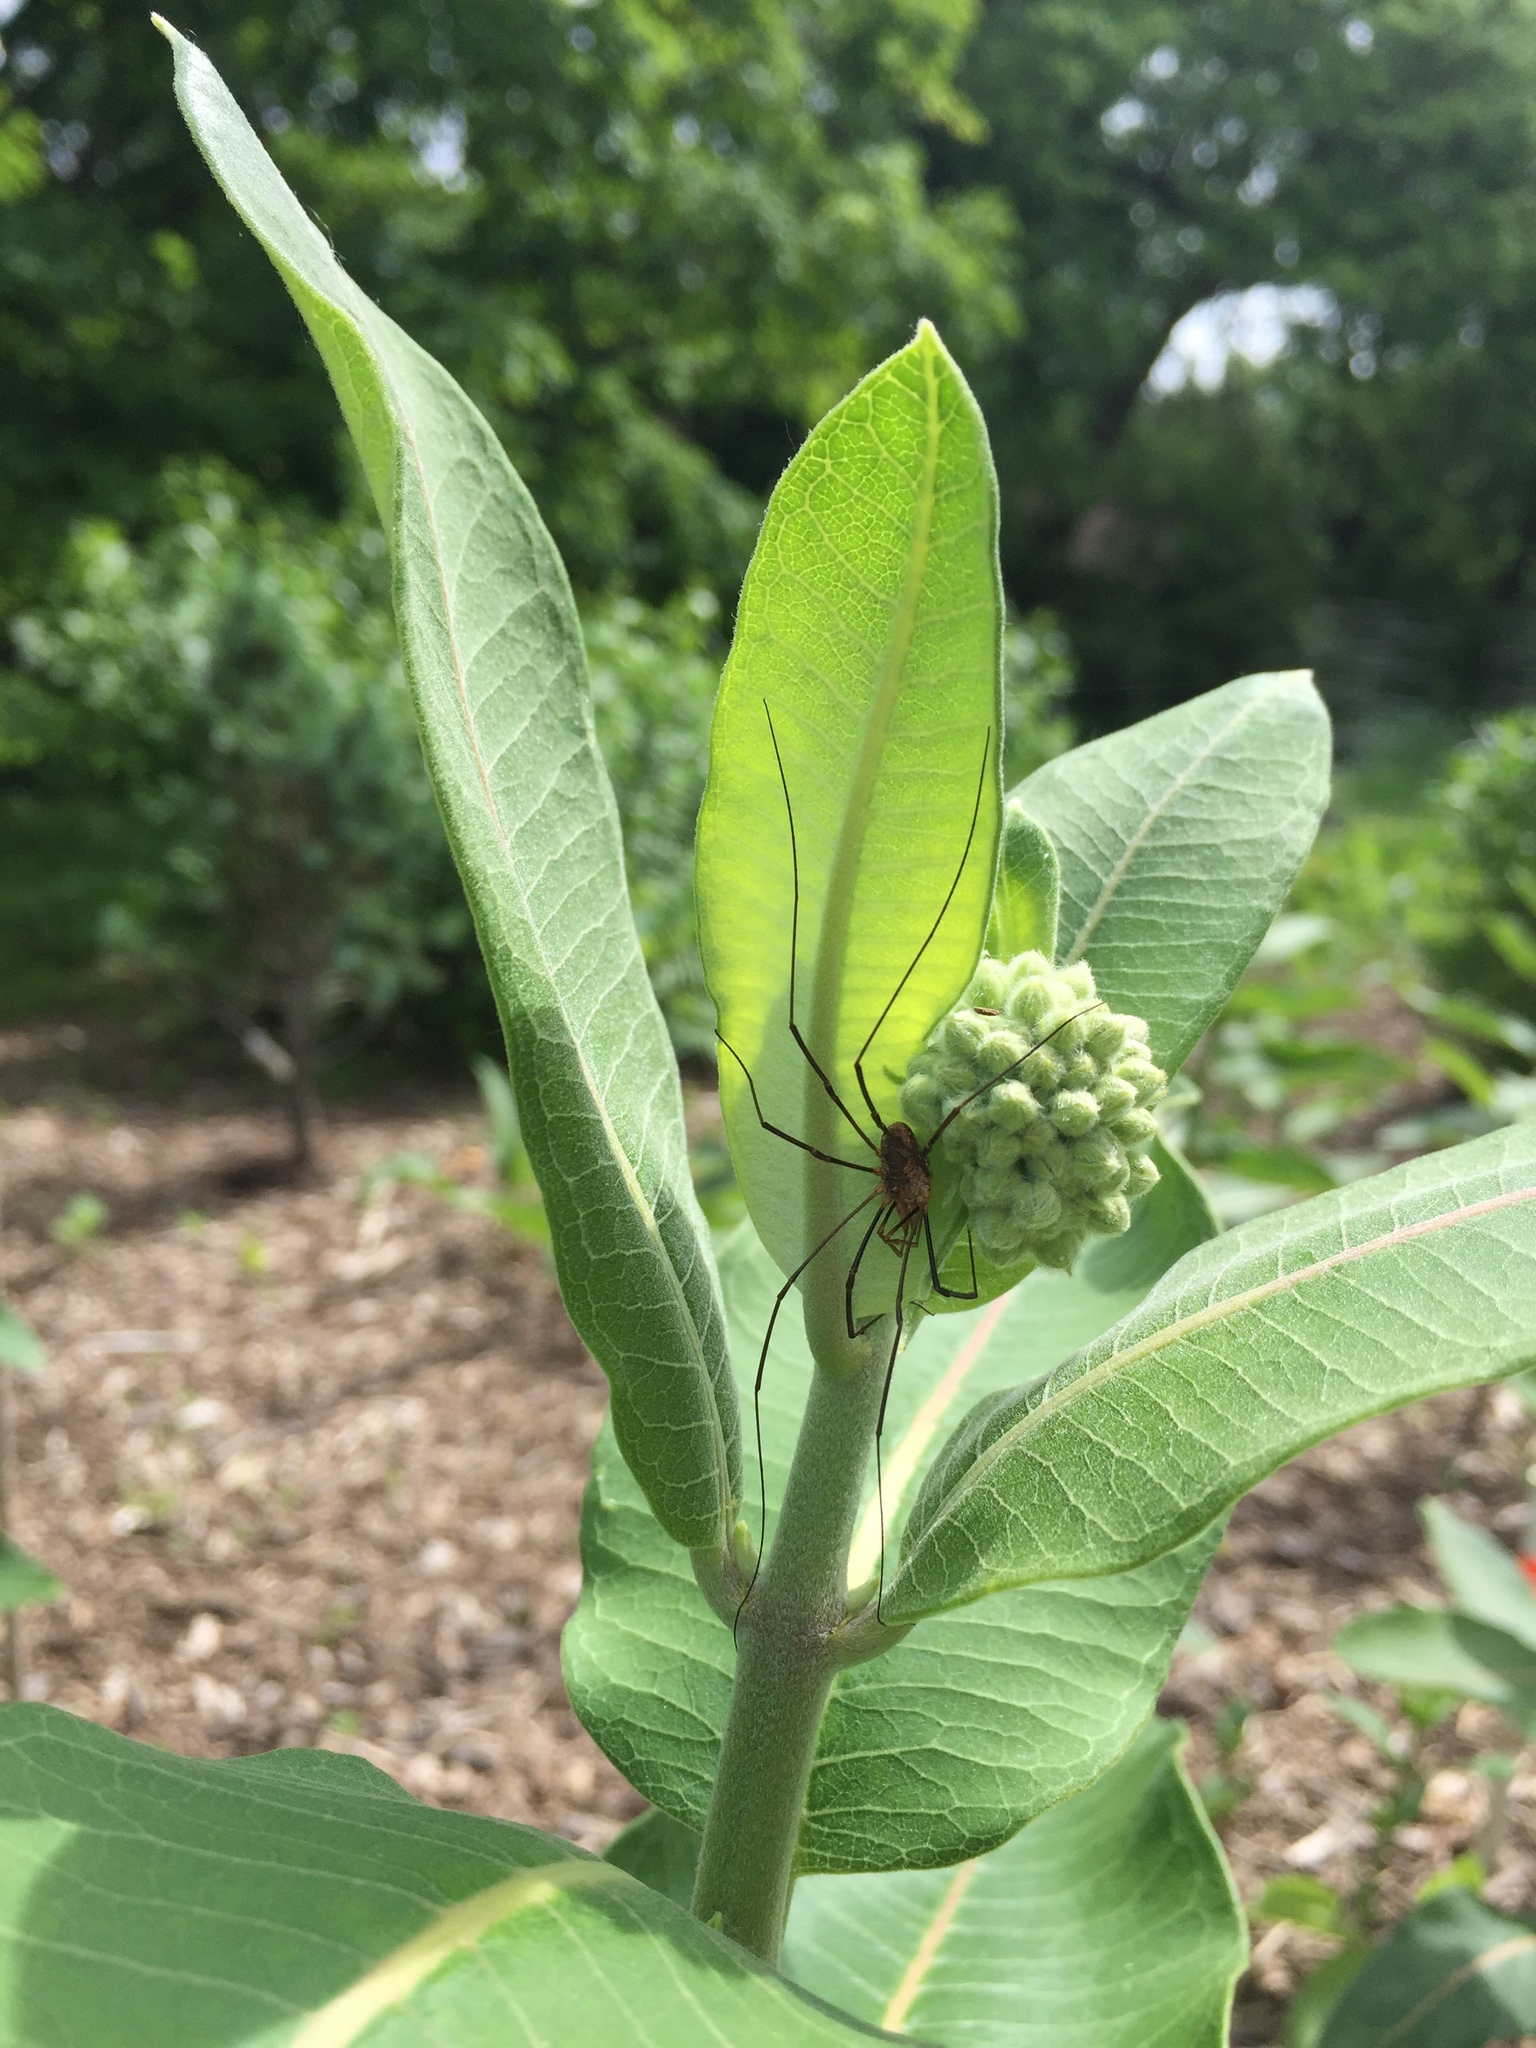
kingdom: Animalia
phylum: Arthropoda
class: Arachnida
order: Opiliones
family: Phalangiidae
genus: Phalangium
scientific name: Phalangium opilio
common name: Daddy longleg
